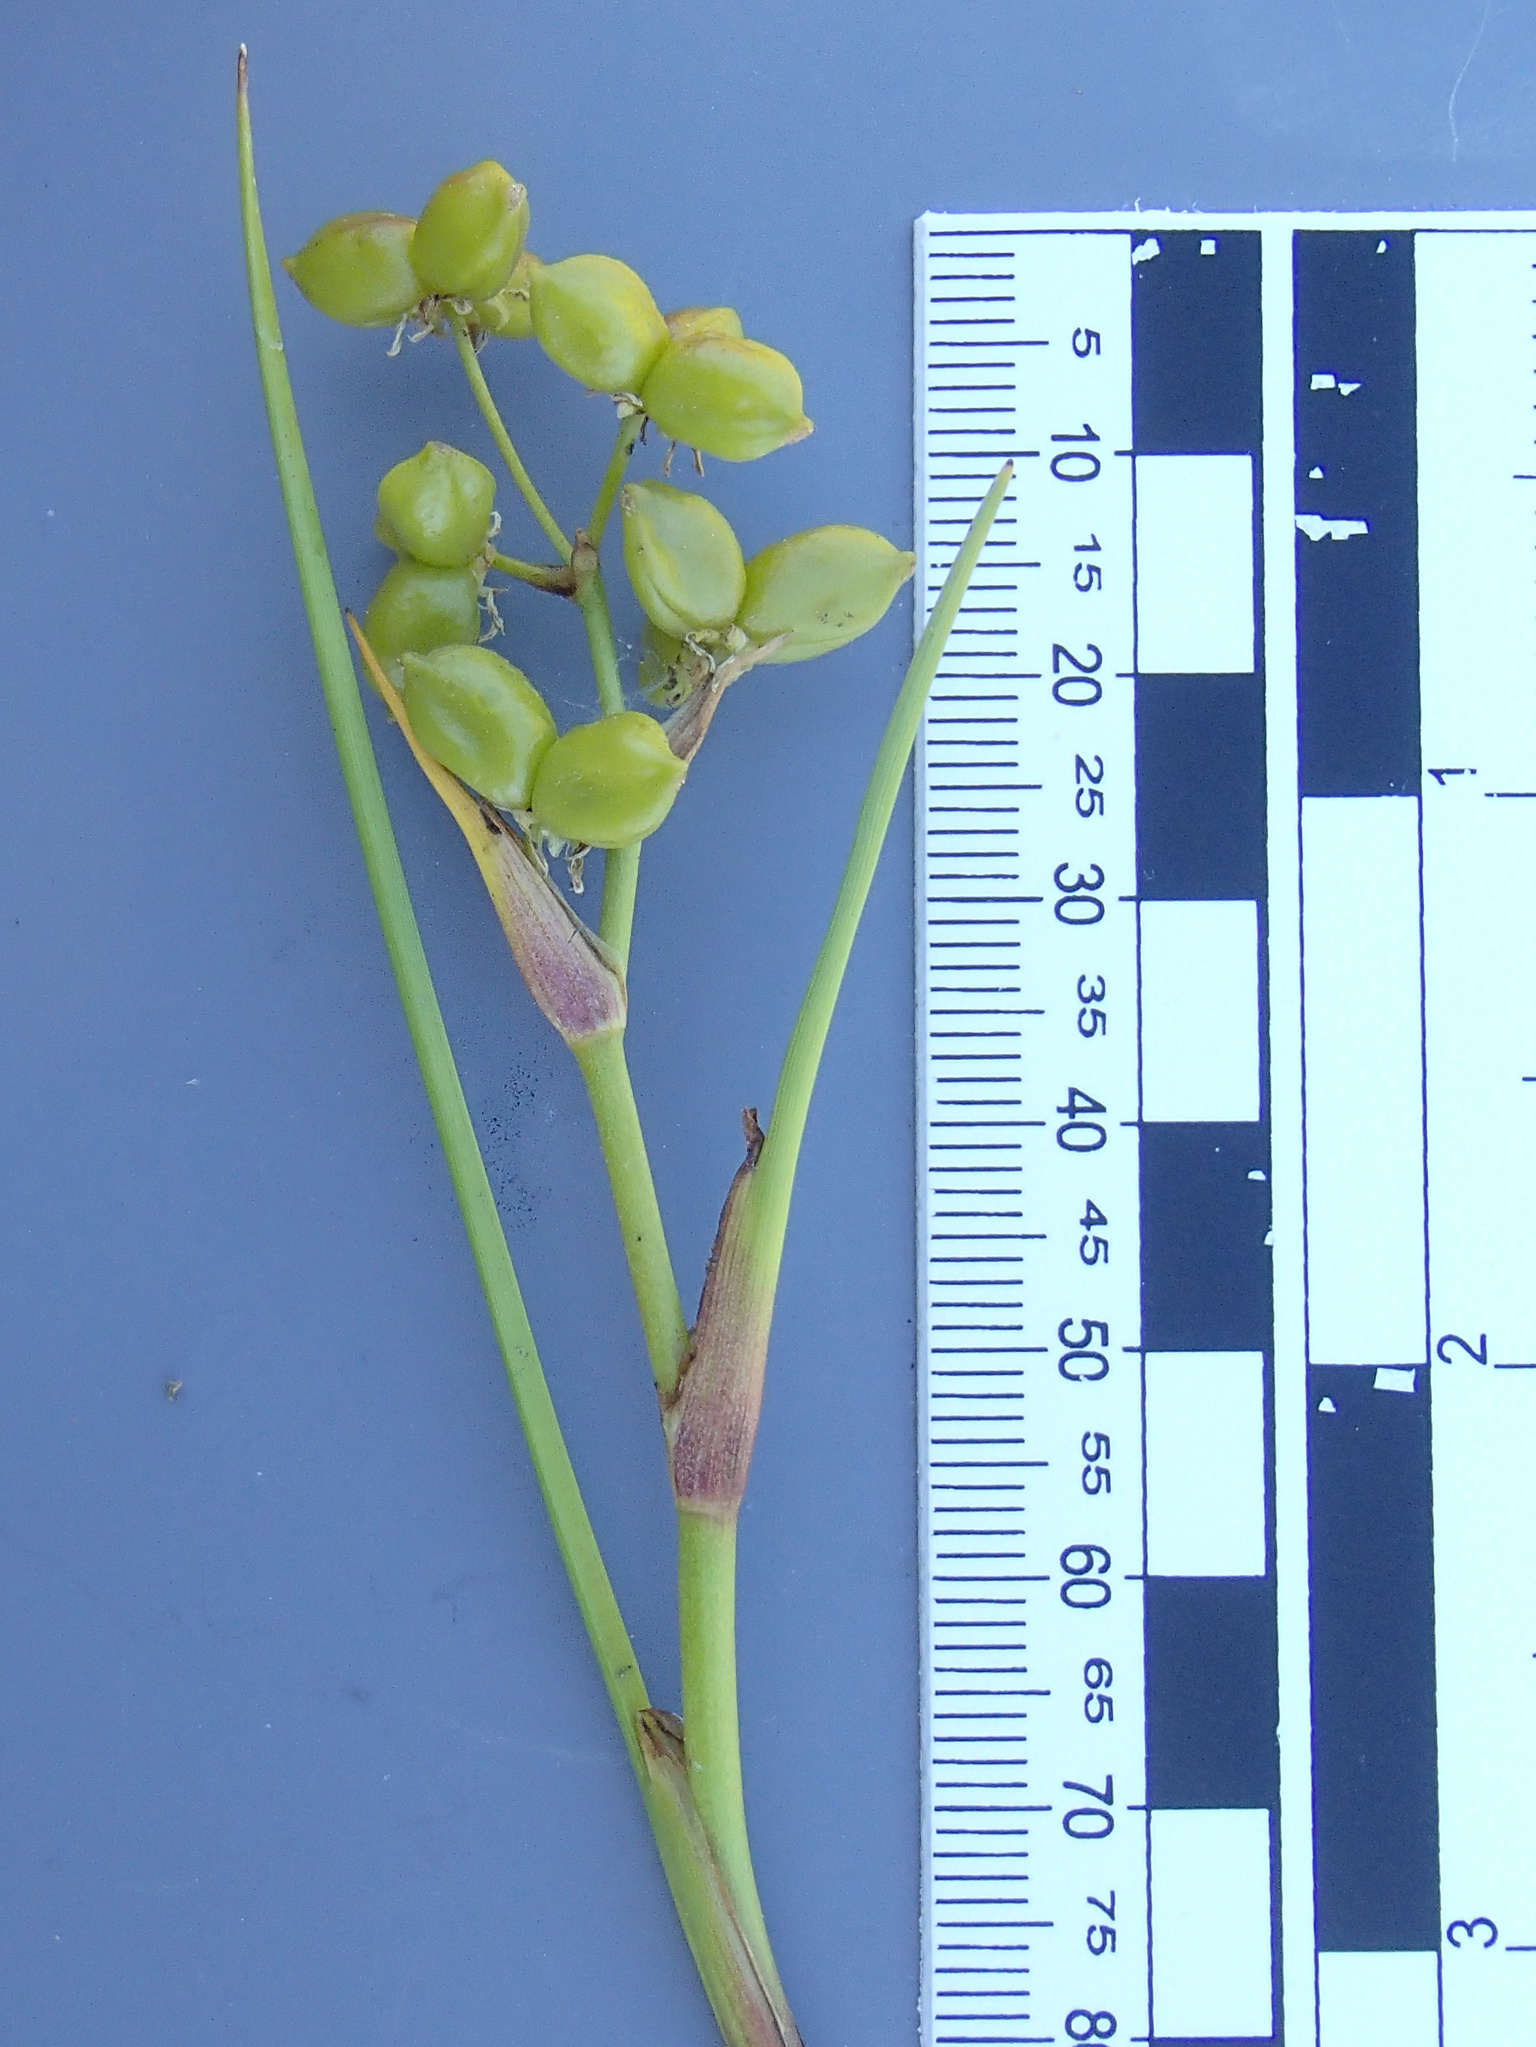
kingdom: Plantae
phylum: Tracheophyta
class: Liliopsida
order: Alismatales
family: Scheuchzeriaceae
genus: Scheuchzeria
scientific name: Scheuchzeria palustris
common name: Rannoch-rush
